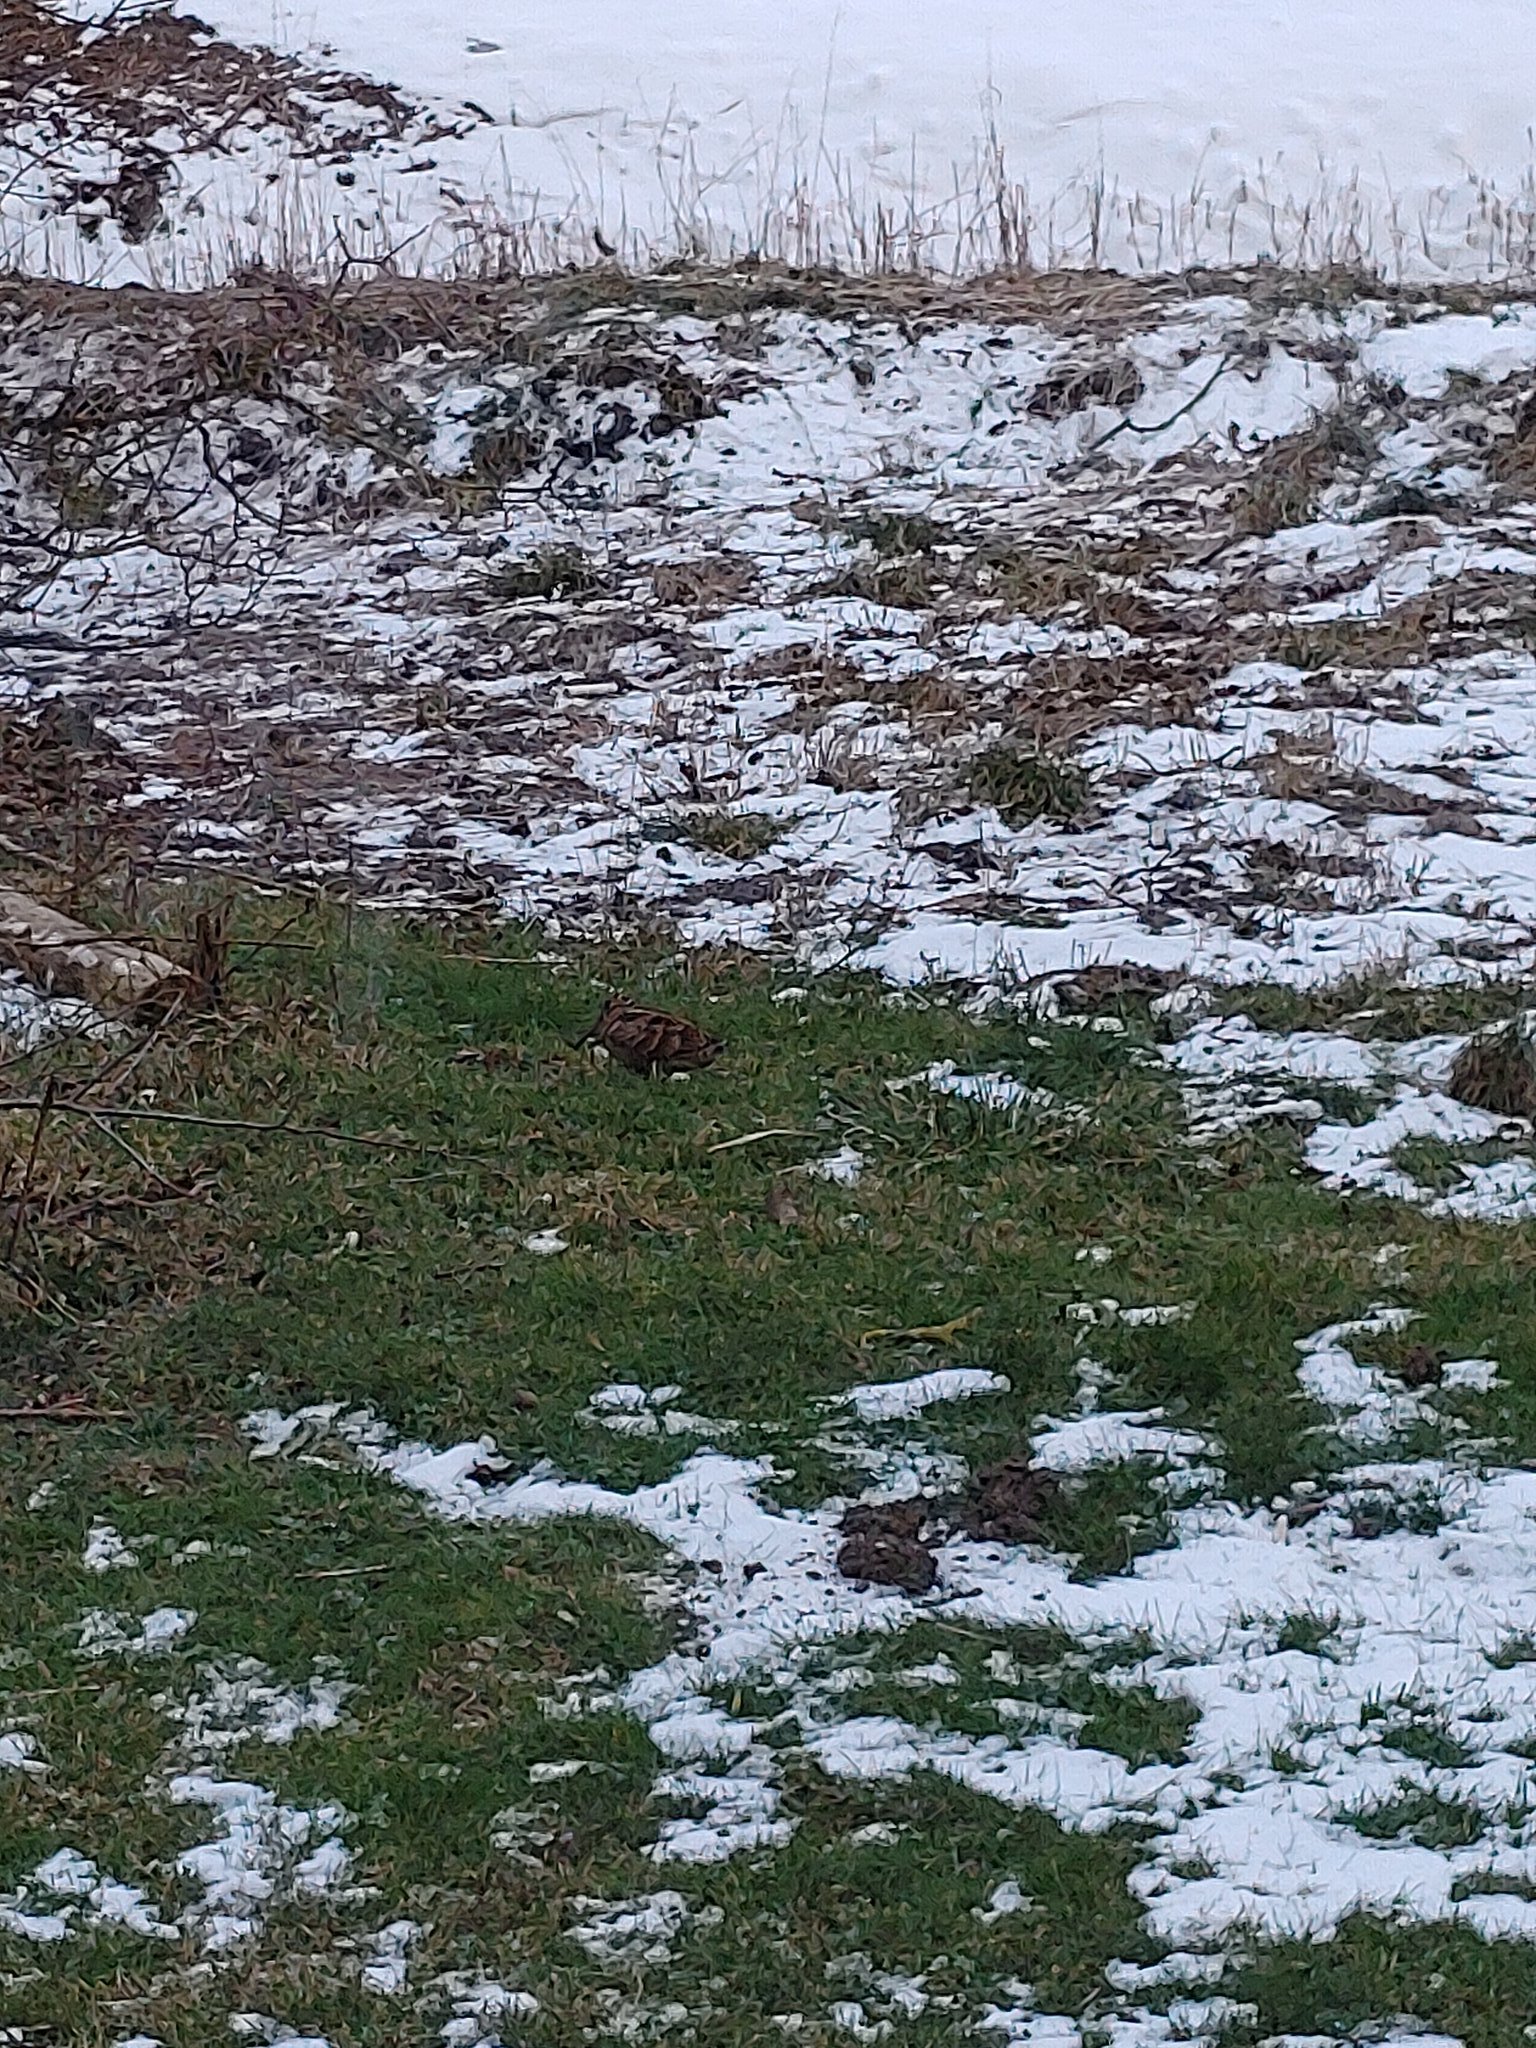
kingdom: Animalia
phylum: Chordata
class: Aves
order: Charadriiformes
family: Scolopacidae
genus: Scolopax
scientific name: Scolopax rusticola
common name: Eurasian woodcock
